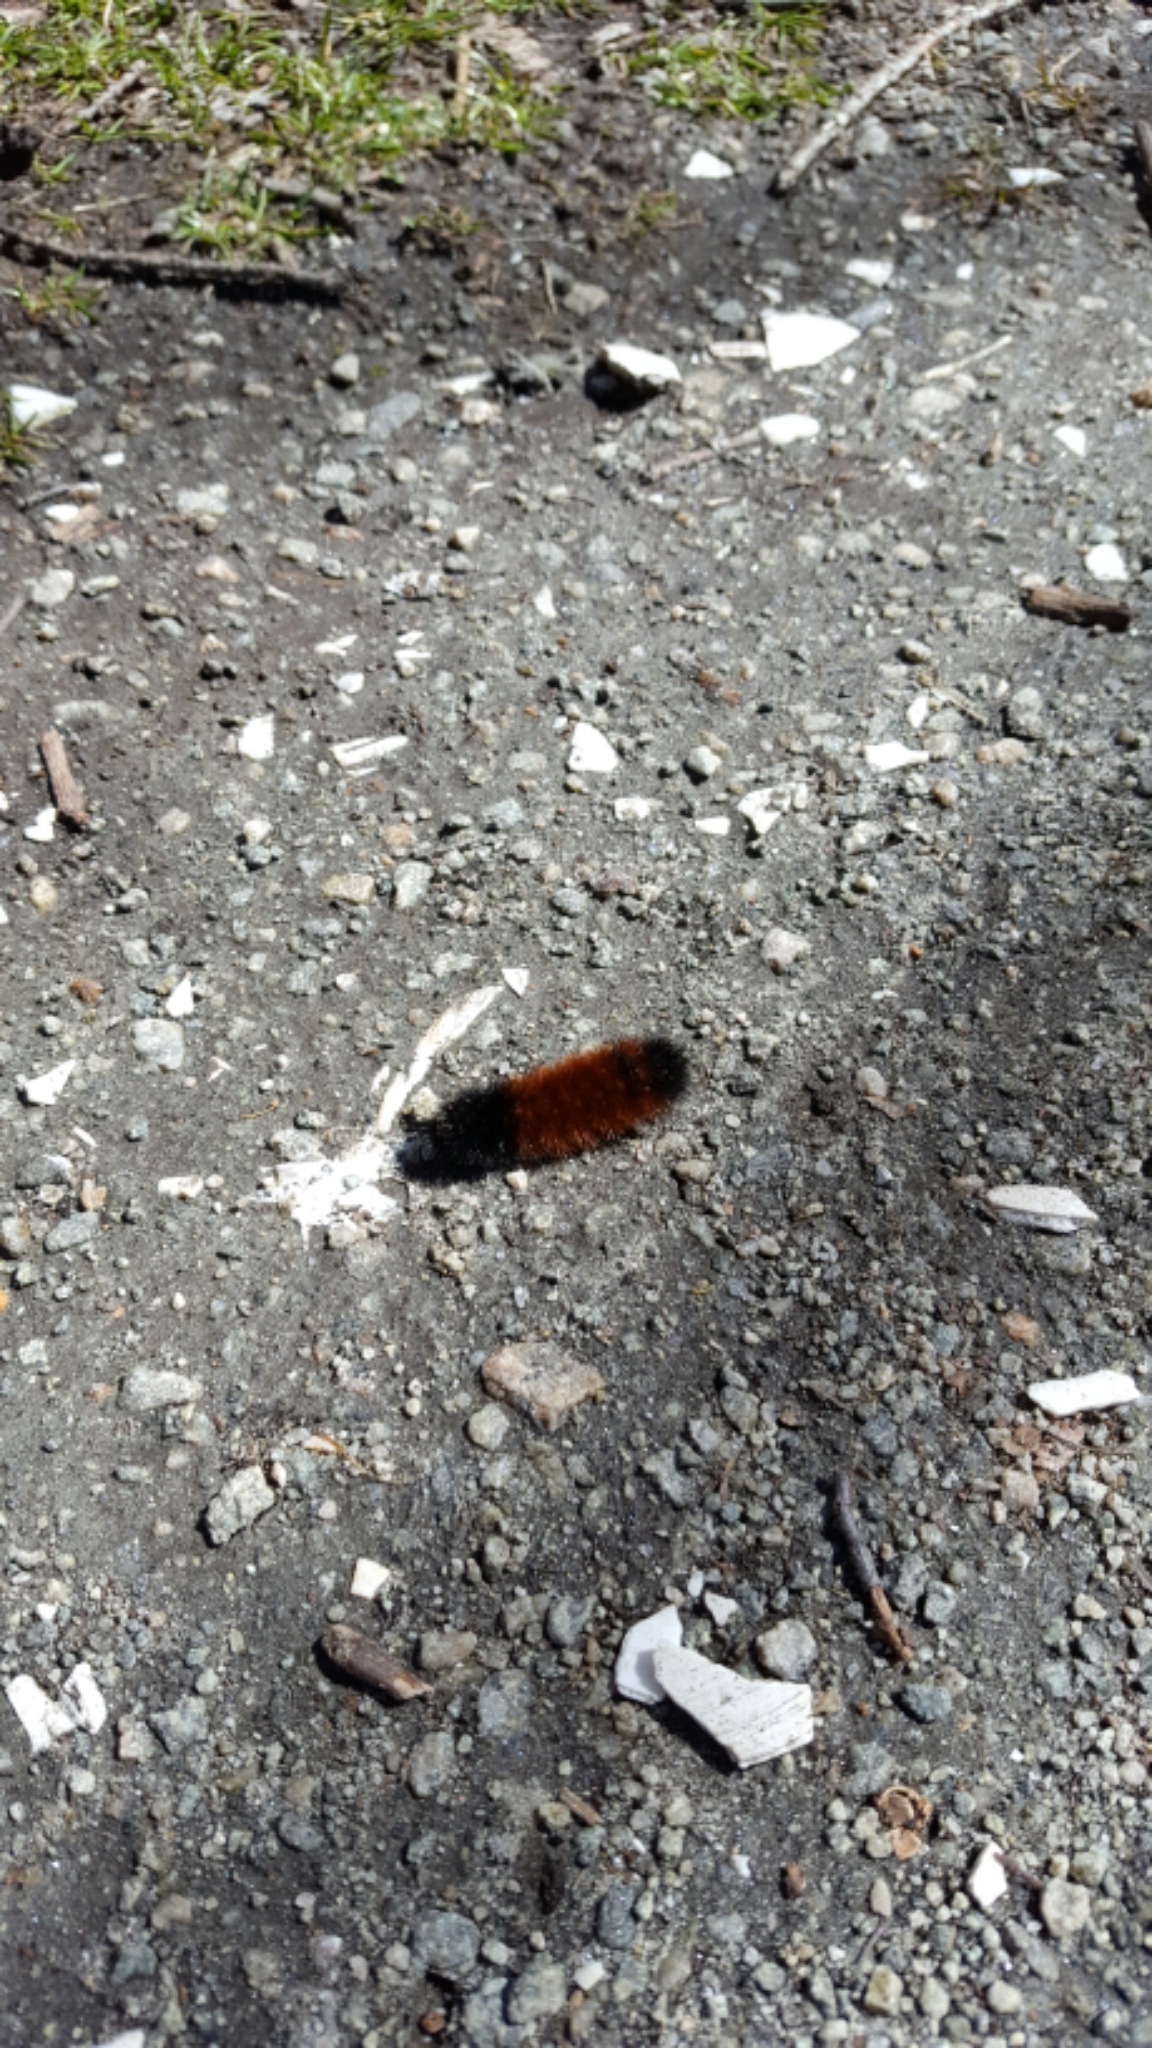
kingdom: Animalia
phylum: Arthropoda
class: Insecta
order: Lepidoptera
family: Erebidae
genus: Pyrrharctia
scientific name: Pyrrharctia isabella
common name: Isabella tiger moth
